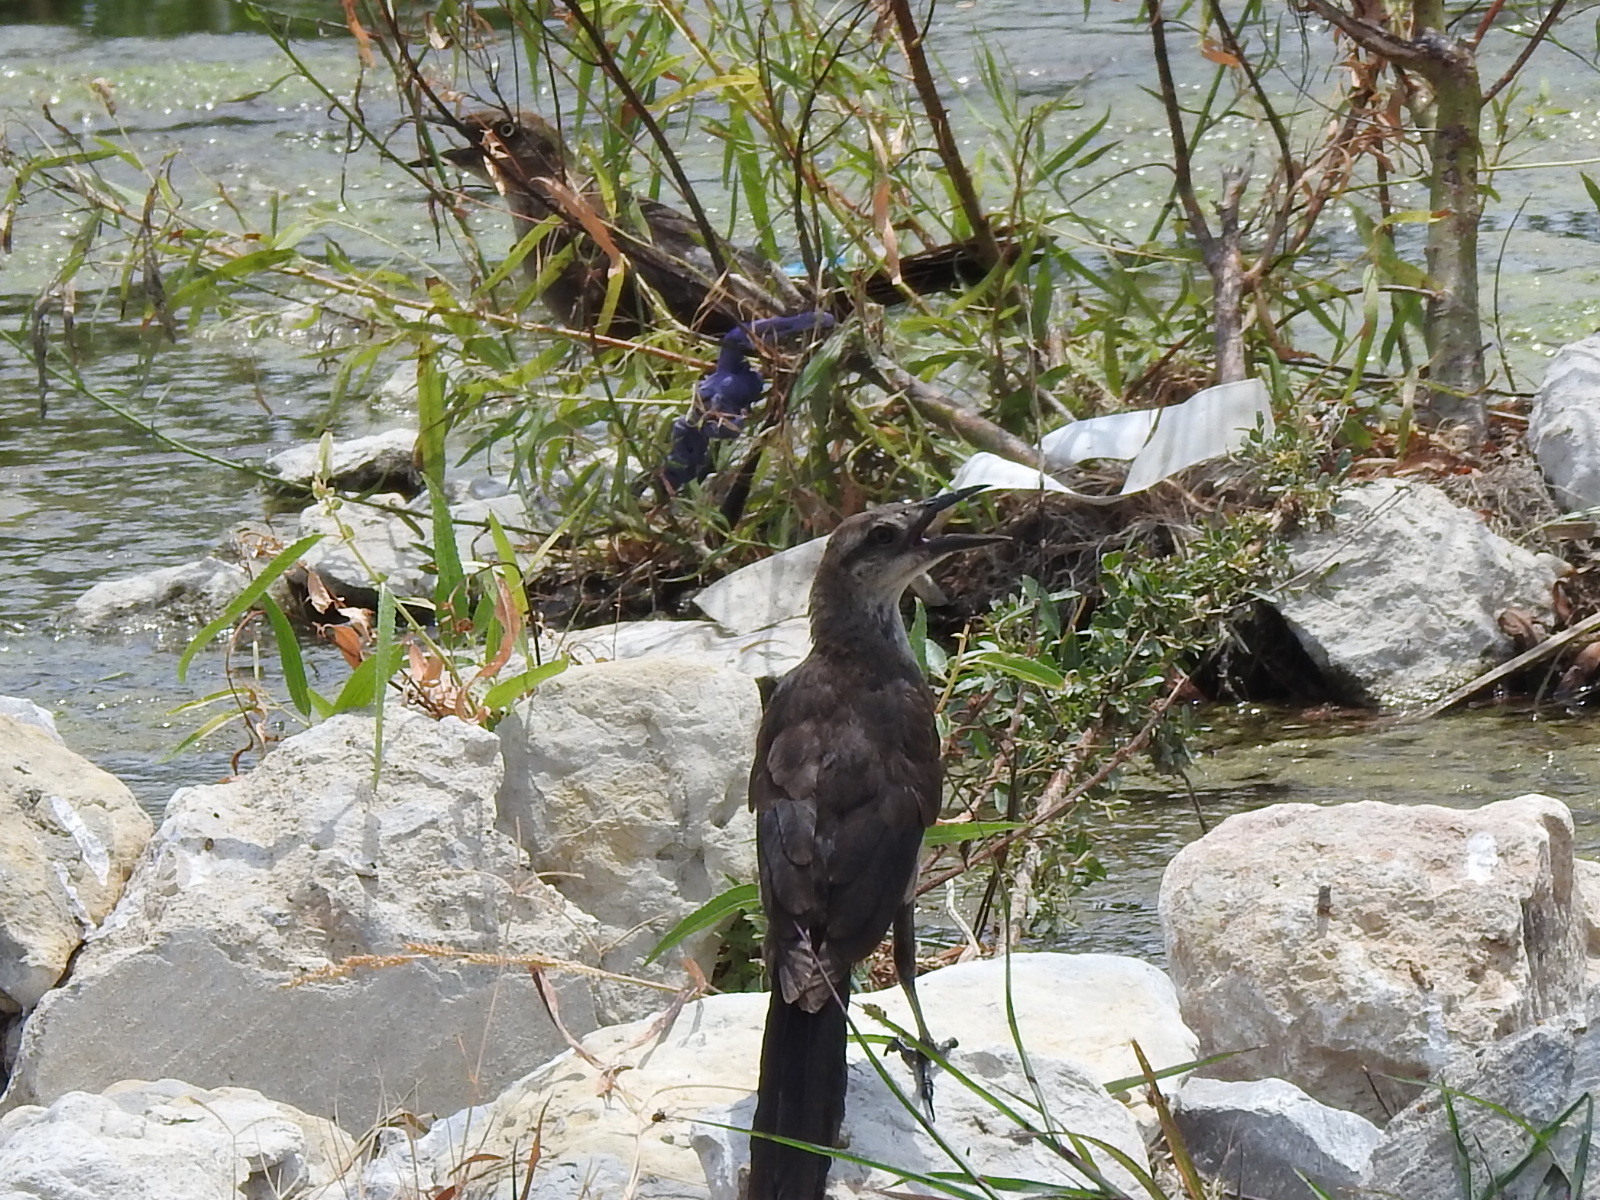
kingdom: Animalia
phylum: Chordata
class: Aves
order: Passeriformes
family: Icteridae
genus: Quiscalus
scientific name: Quiscalus mexicanus
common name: Great-tailed grackle
